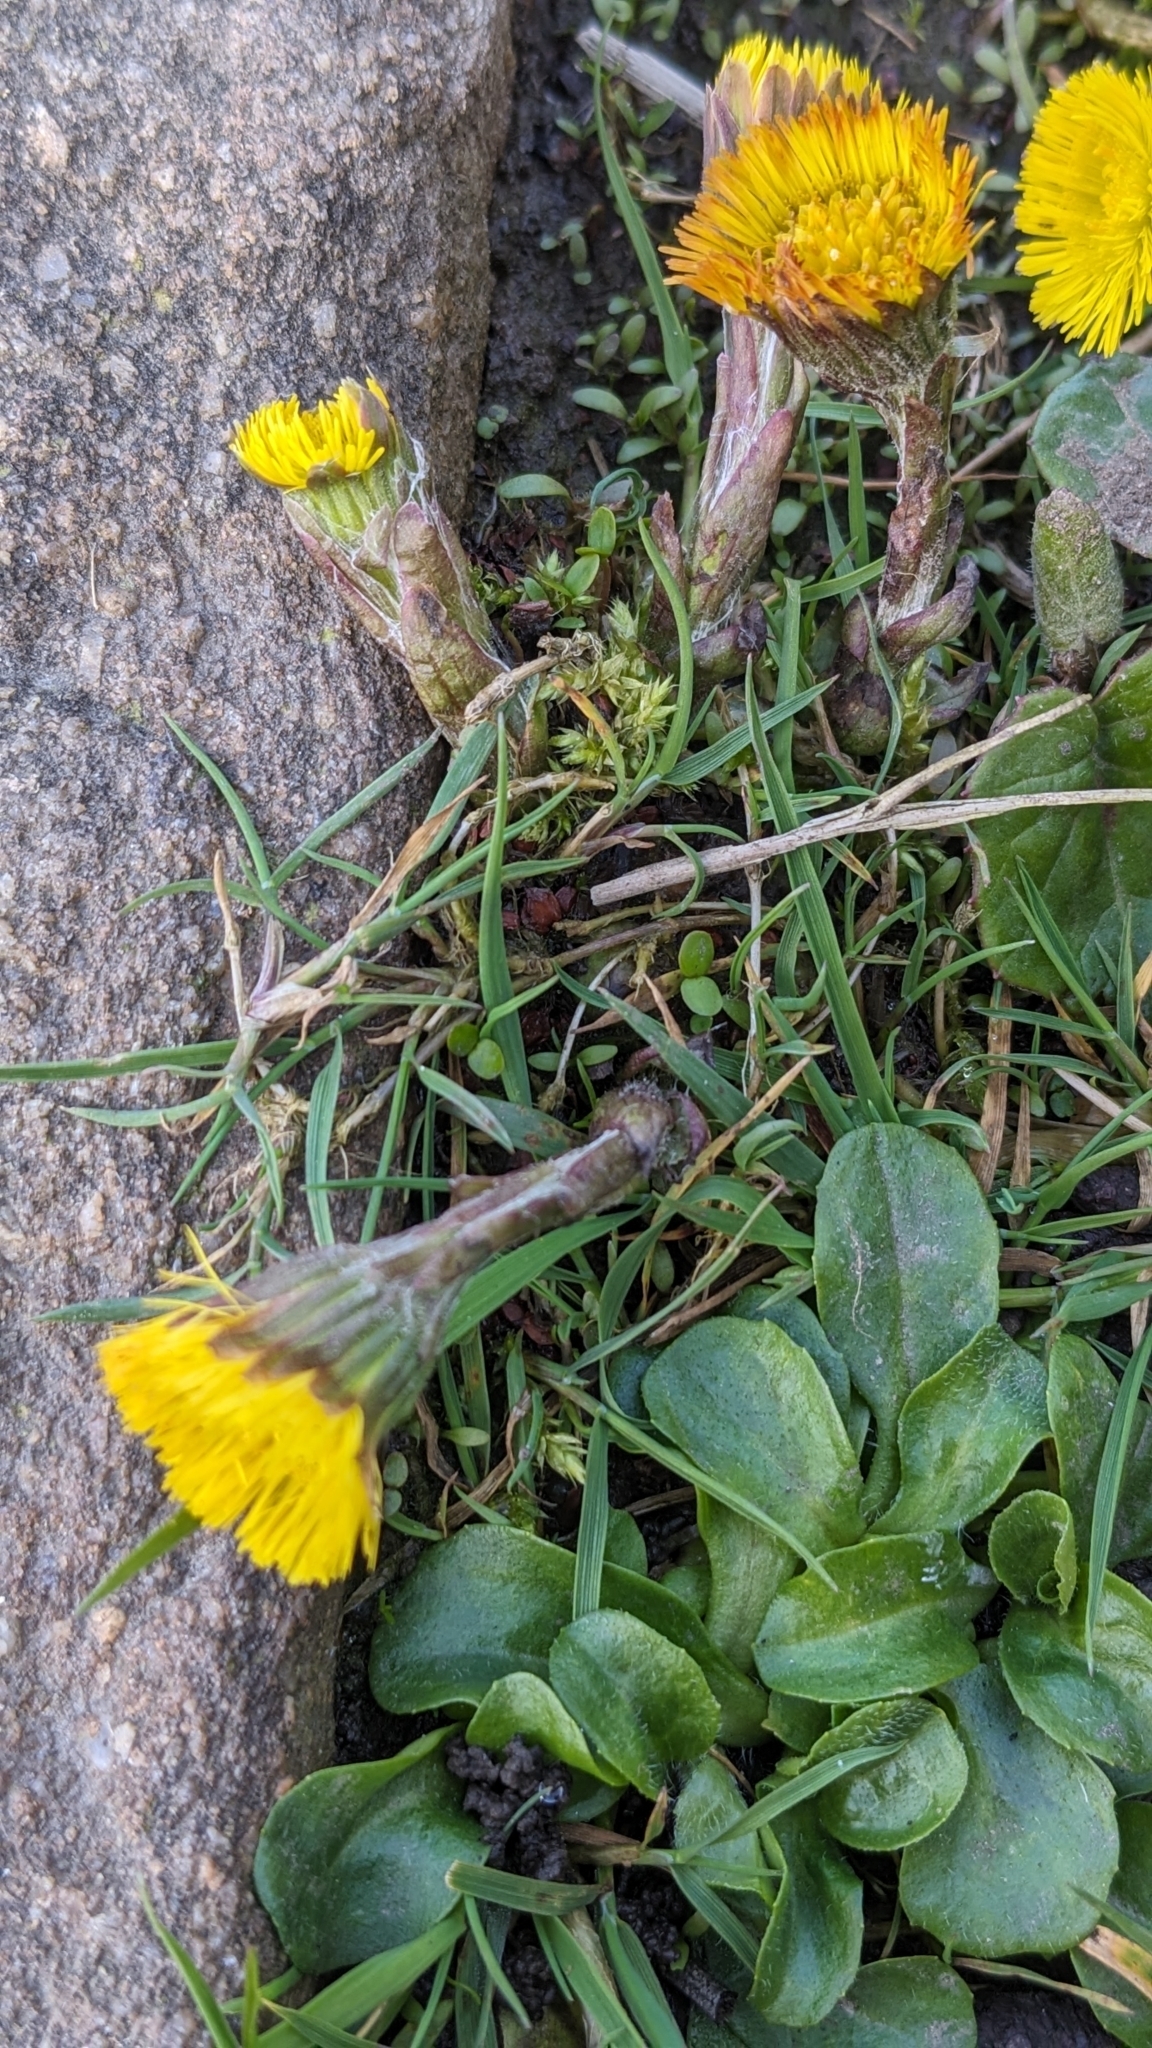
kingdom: Plantae
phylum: Tracheophyta
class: Magnoliopsida
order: Asterales
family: Asteraceae
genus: Tussilago
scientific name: Tussilago farfara
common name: Coltsfoot
